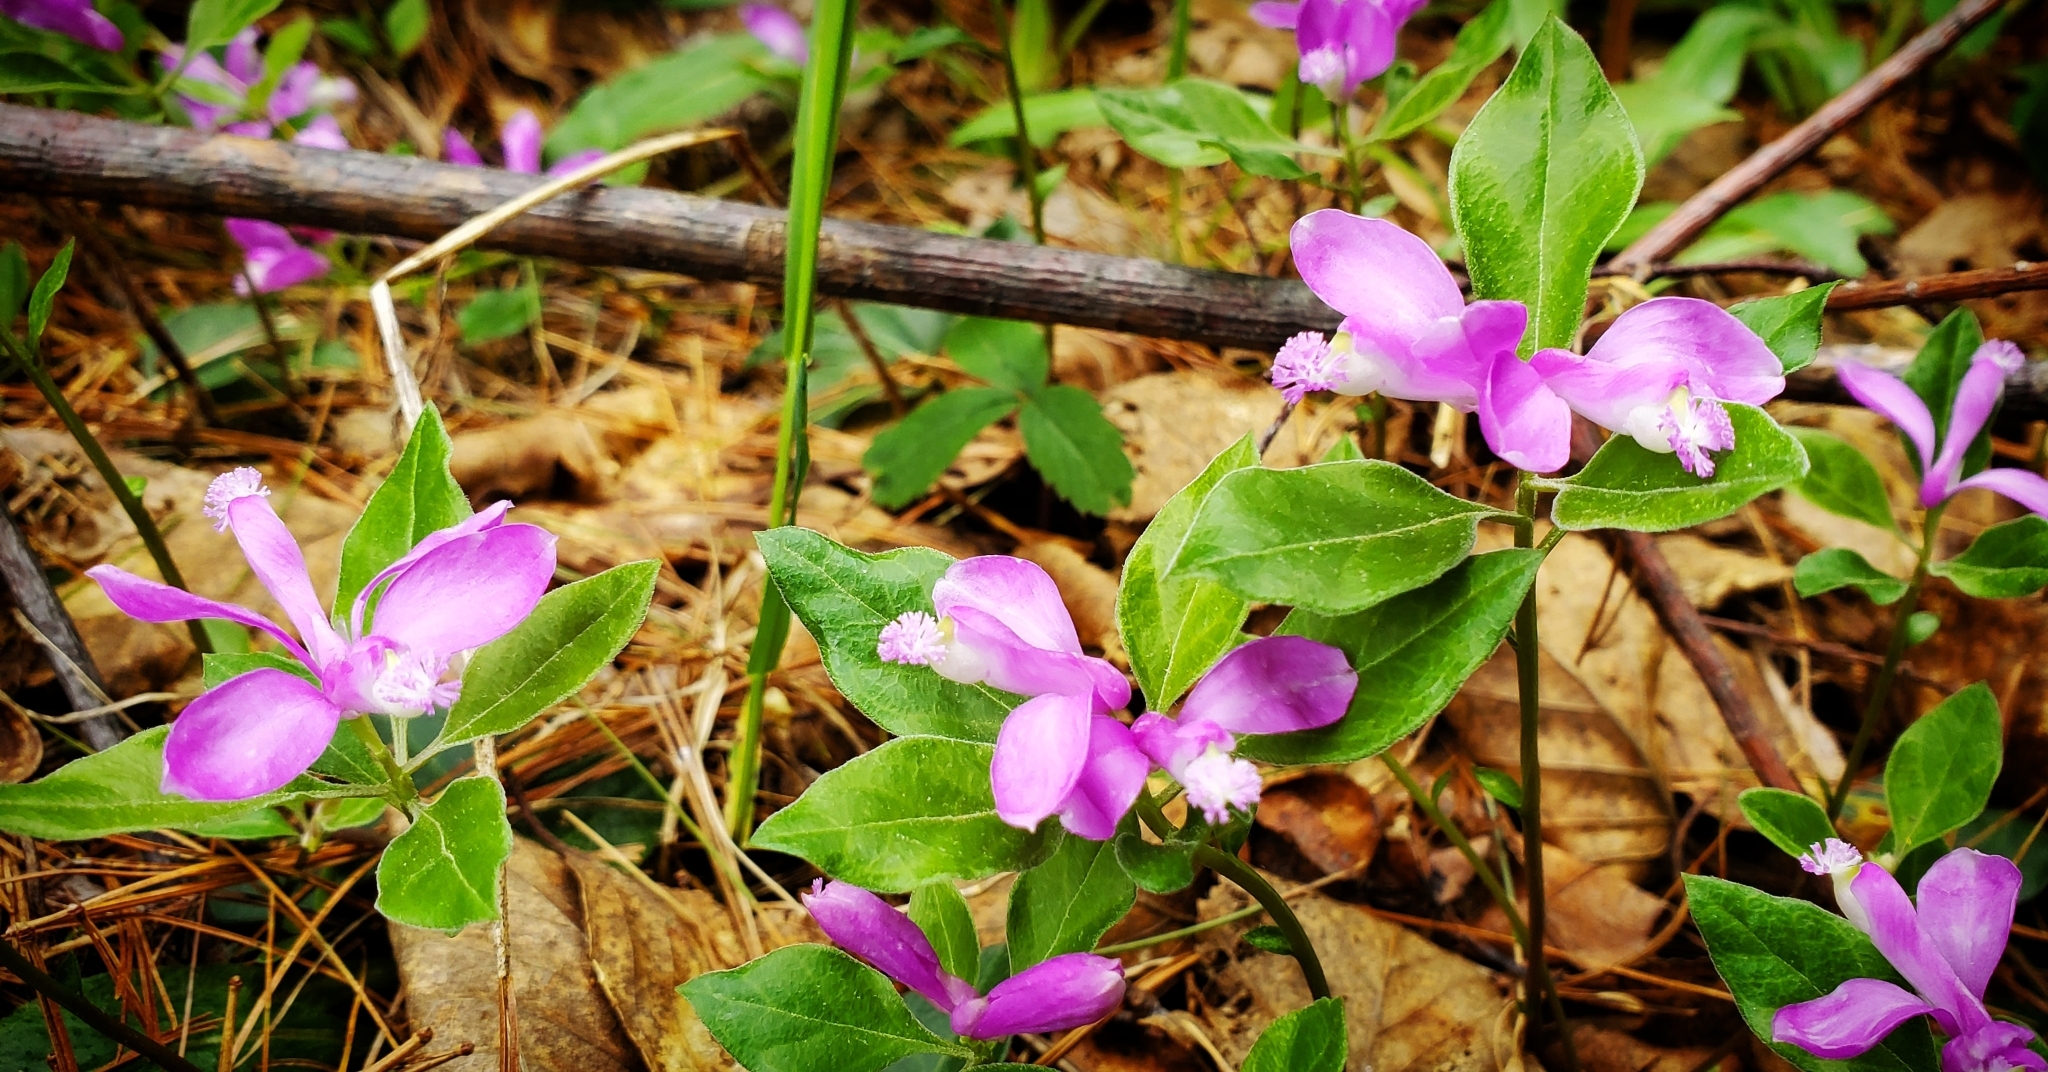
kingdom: Plantae
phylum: Tracheophyta
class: Magnoliopsida
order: Fabales
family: Polygalaceae
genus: Polygaloides
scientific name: Polygaloides paucifolia
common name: Bird-on-the-wing
